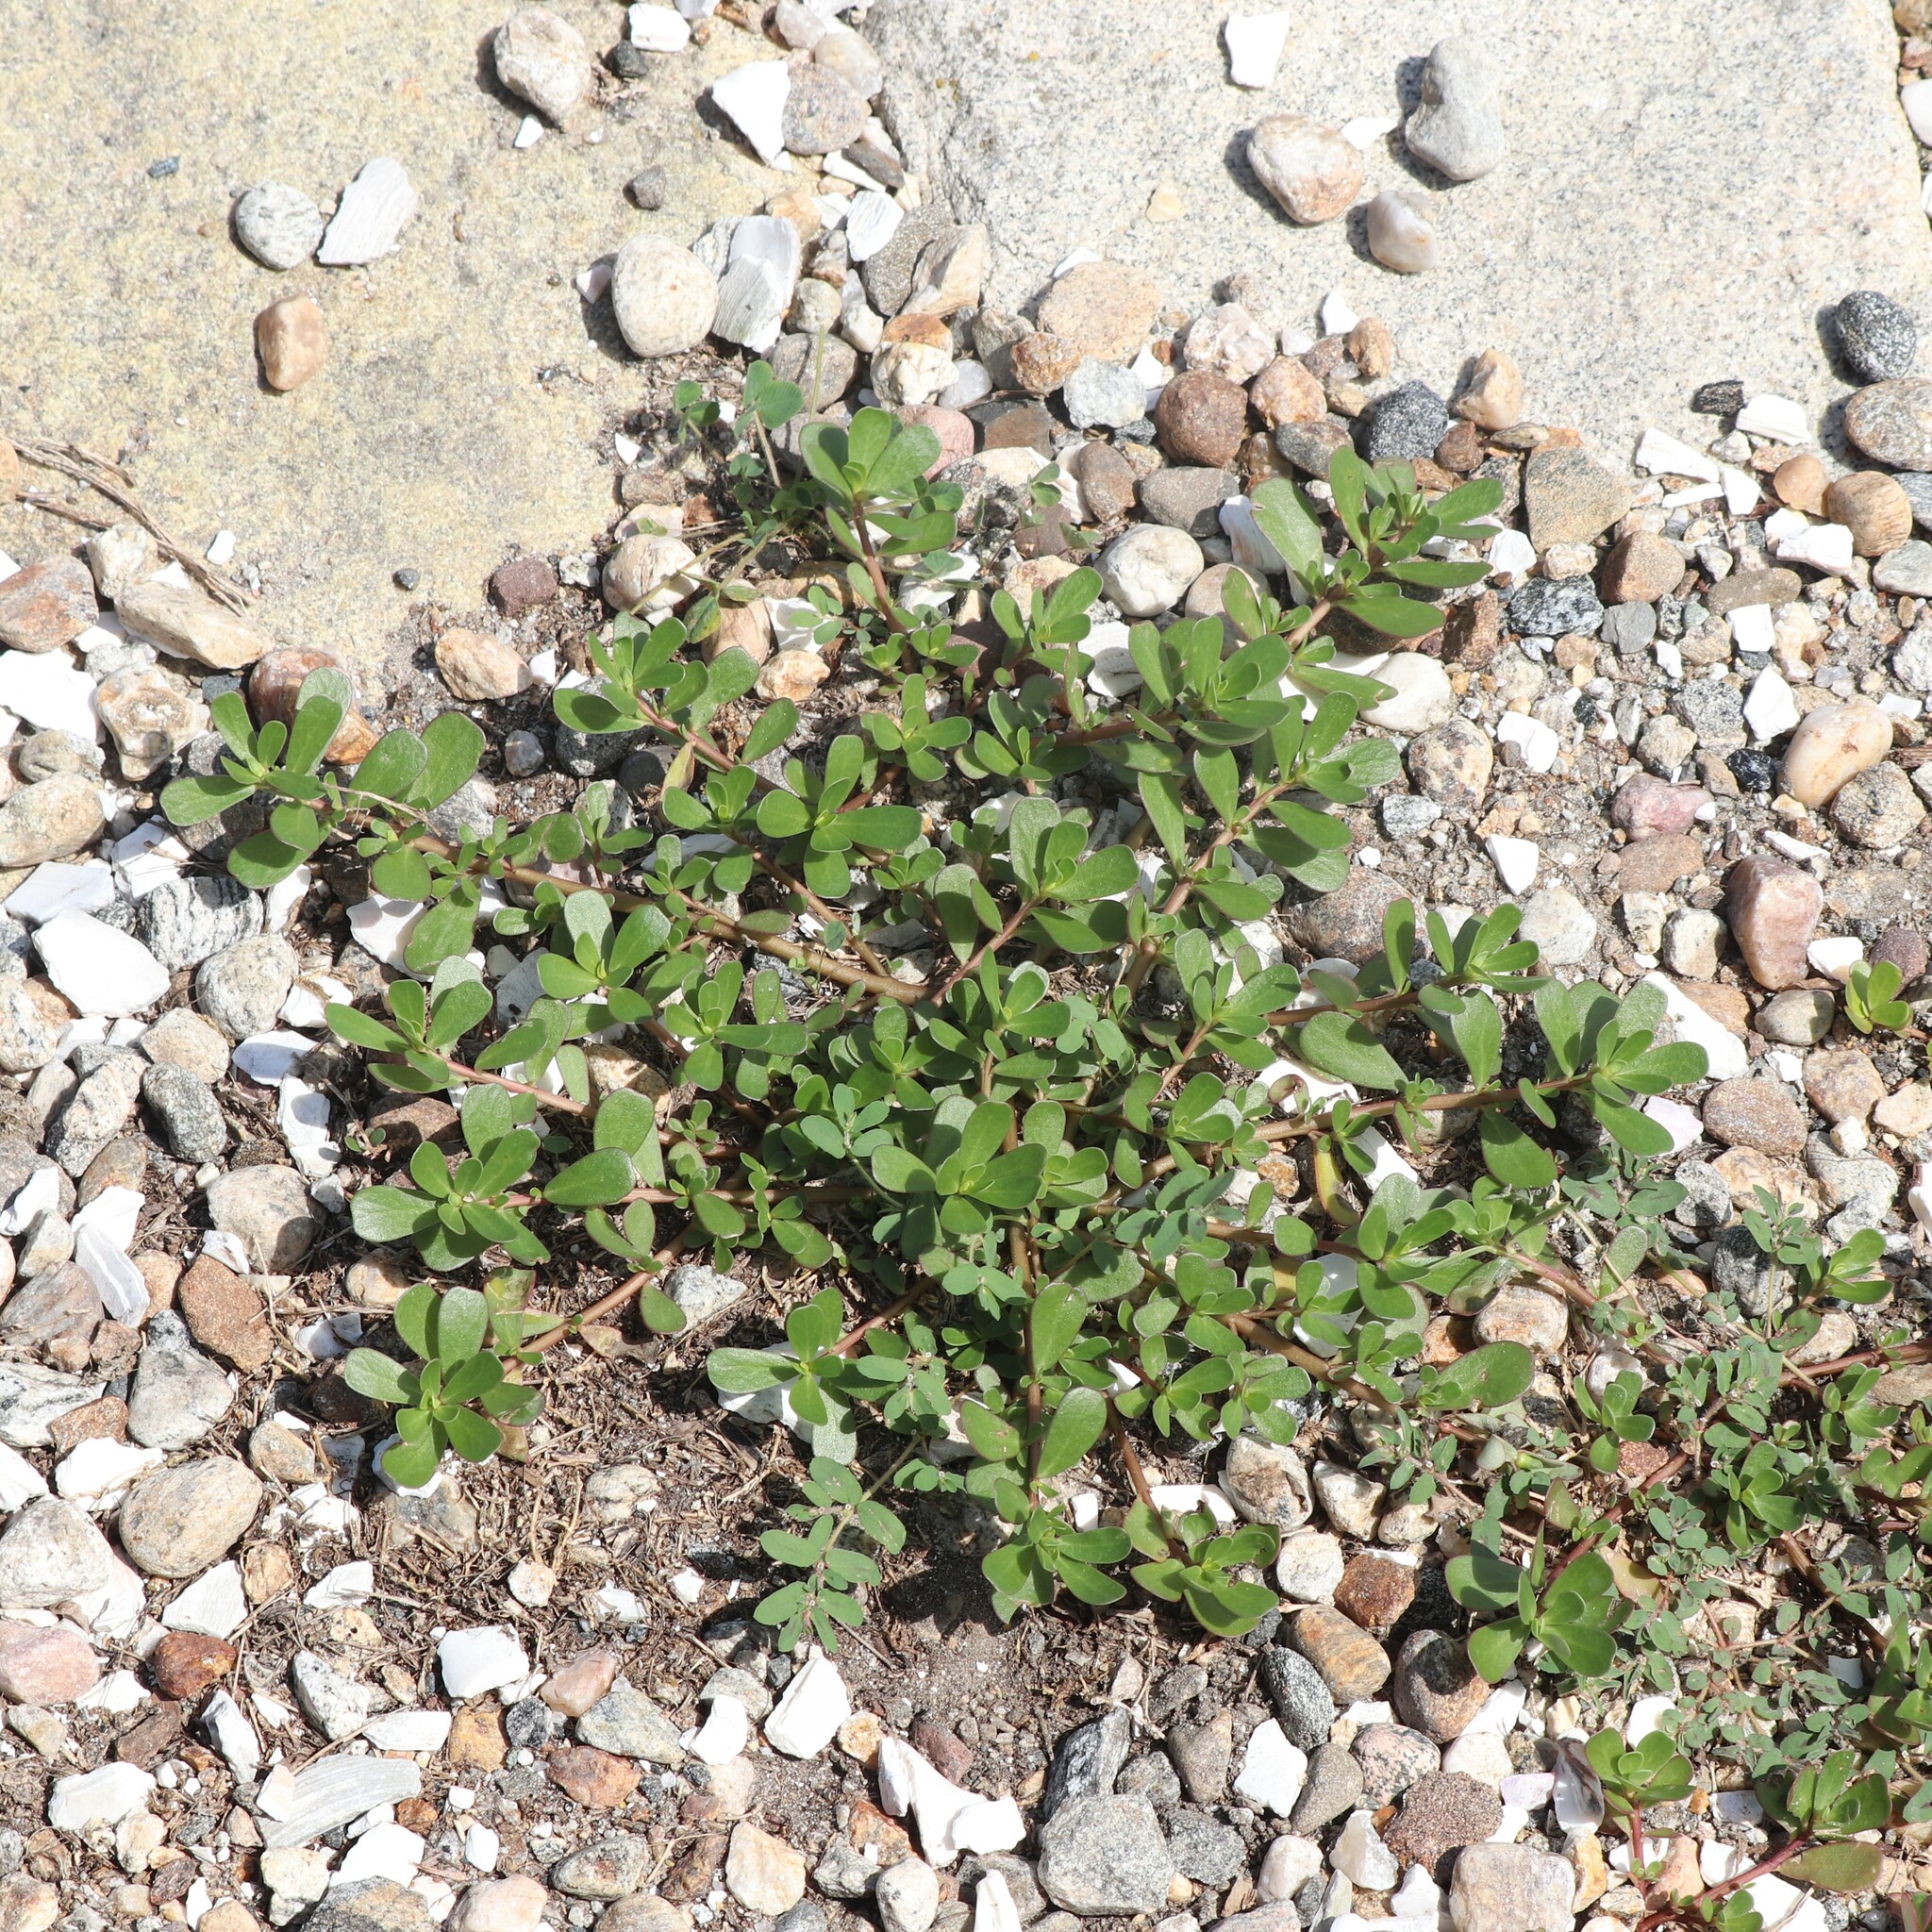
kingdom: Plantae
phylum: Tracheophyta
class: Magnoliopsida
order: Caryophyllales
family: Portulacaceae
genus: Portulaca
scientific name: Portulaca oleracea
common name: Common purslane
